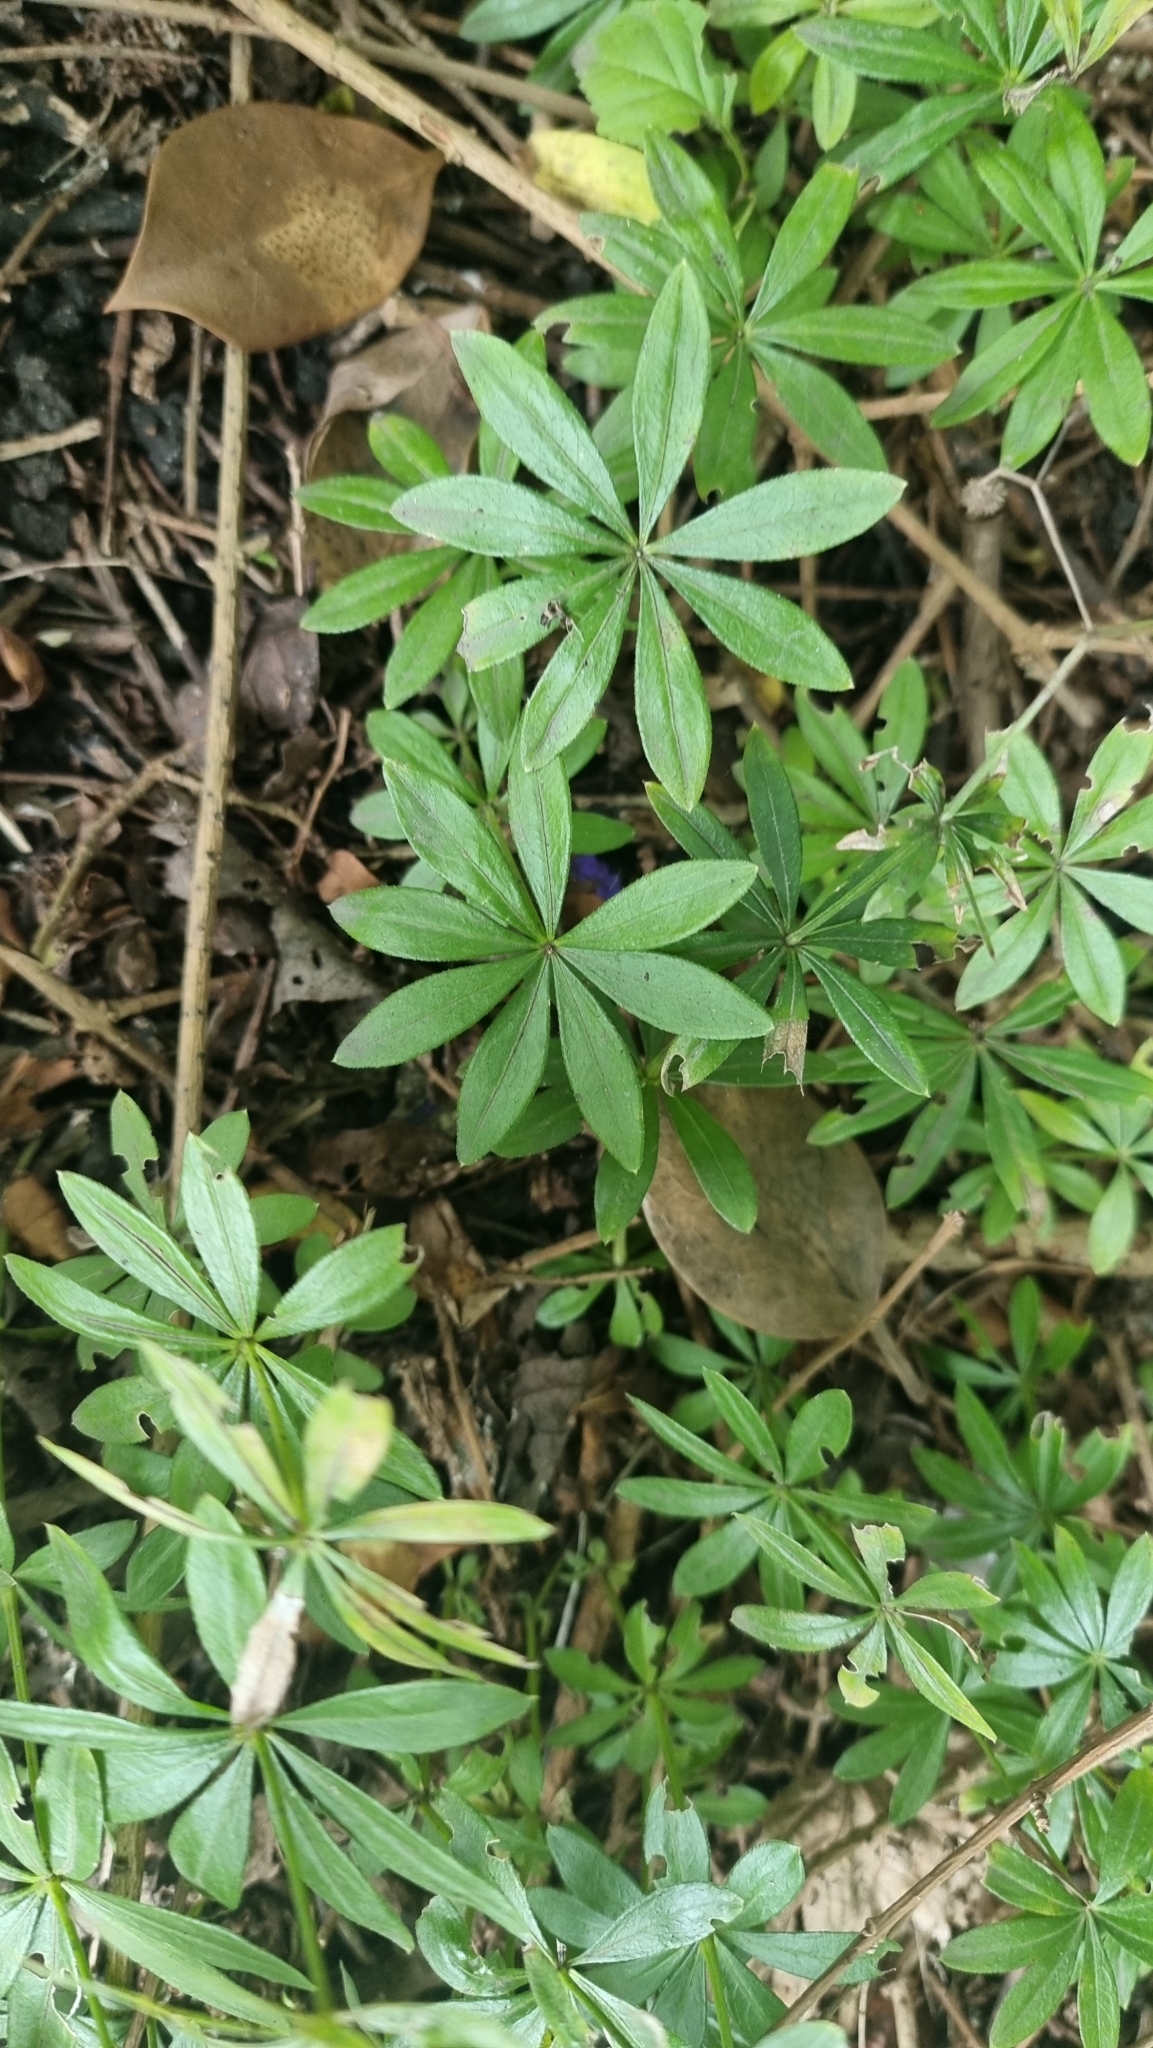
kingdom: Plantae
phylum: Tracheophyta
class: Magnoliopsida
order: Gentianales
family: Rubiaceae
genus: Galium
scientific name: Galium odoratum
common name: Sweet woodruff
